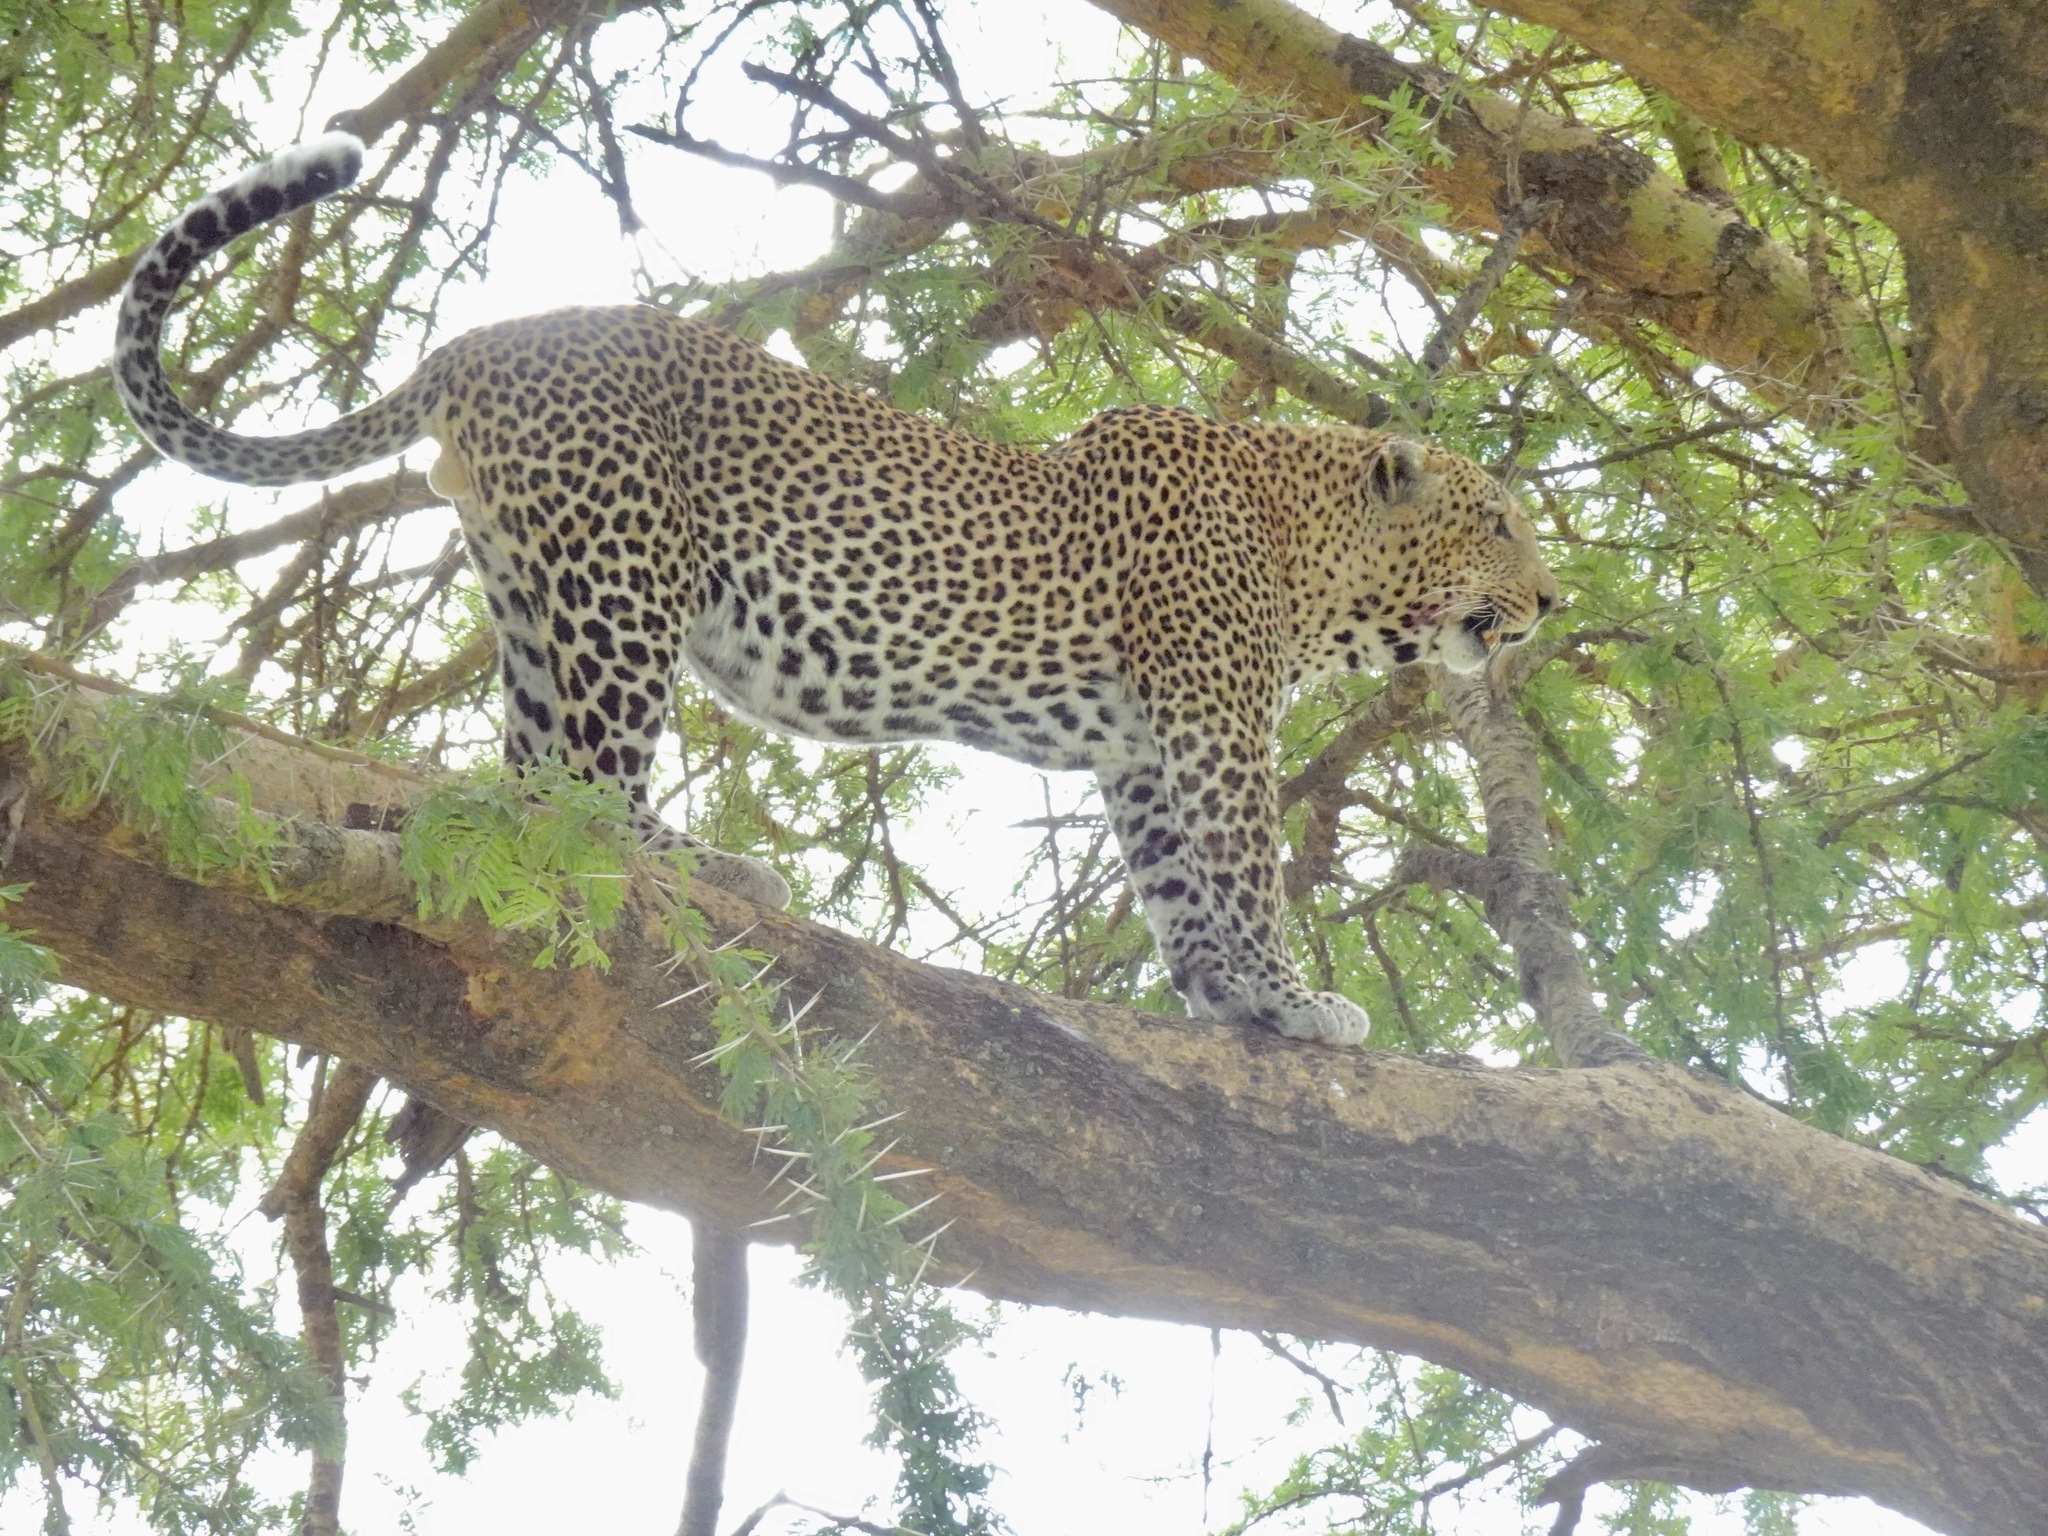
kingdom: Animalia
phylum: Chordata
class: Mammalia
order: Carnivora
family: Felidae
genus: Panthera
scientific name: Panthera pardus
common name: Leopard
